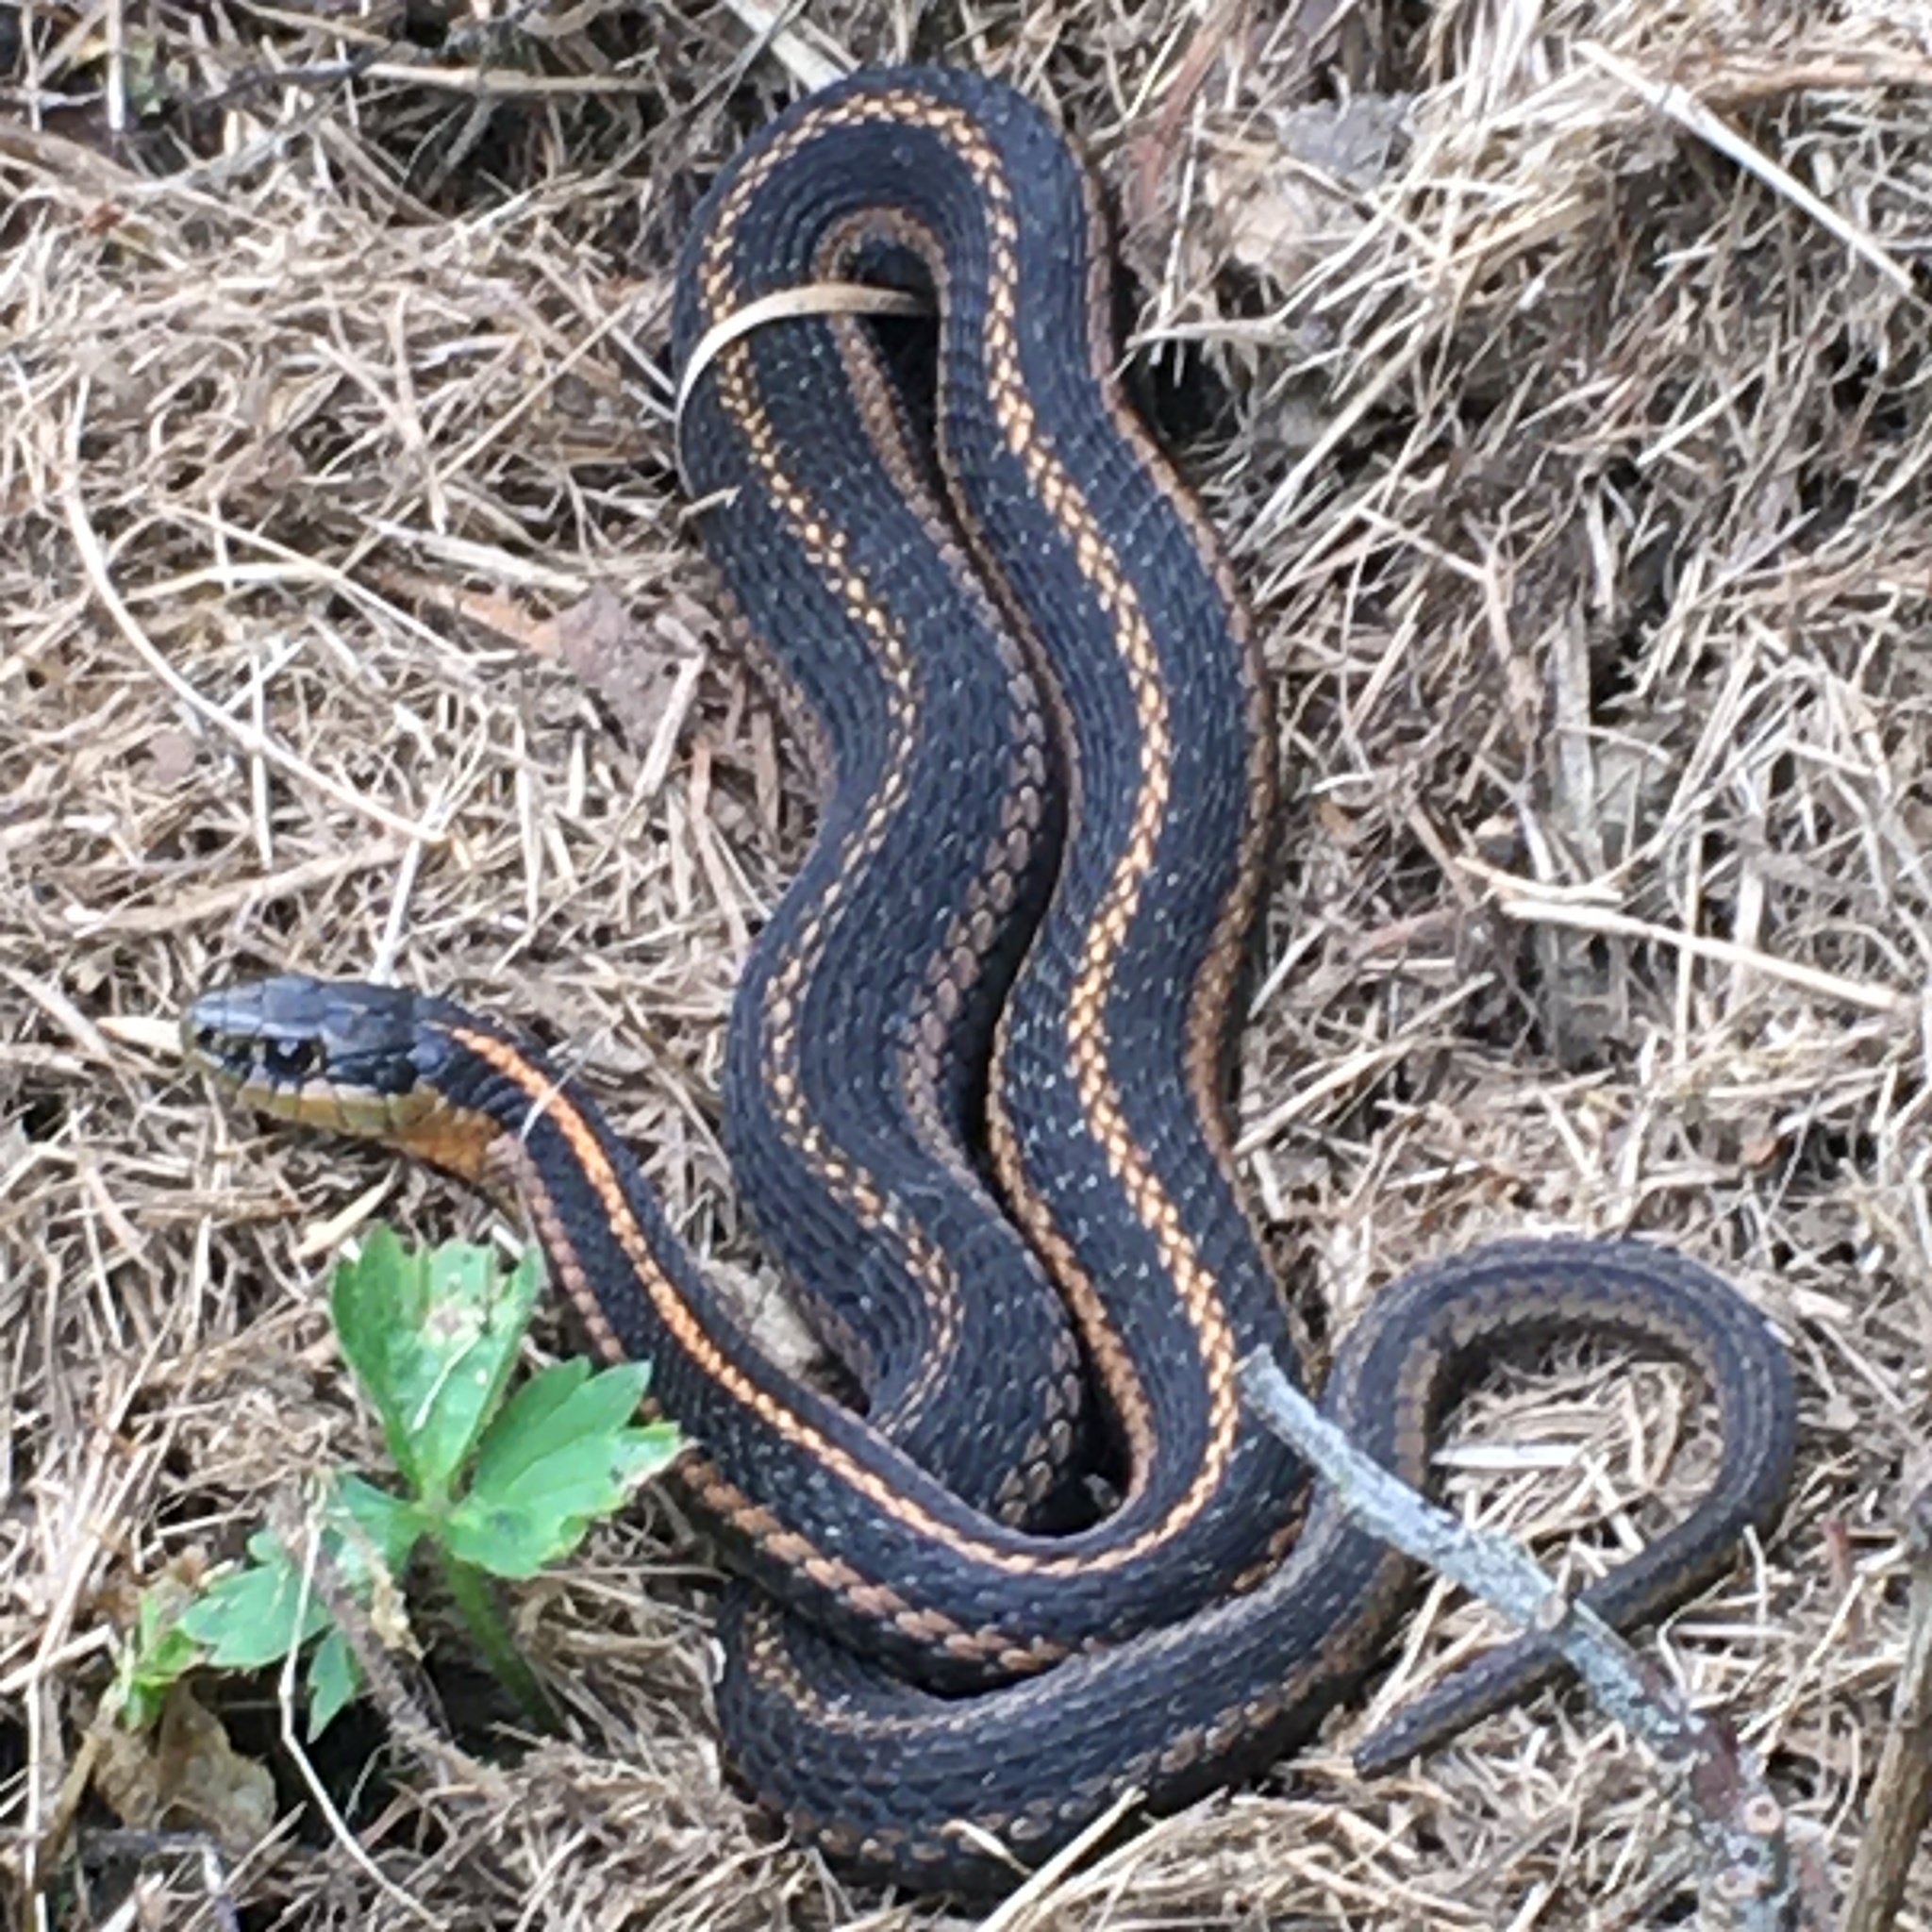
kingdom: Animalia
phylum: Chordata
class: Squamata
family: Colubridae
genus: Thamnophis
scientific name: Thamnophis sirtalis
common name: Common garter snake
